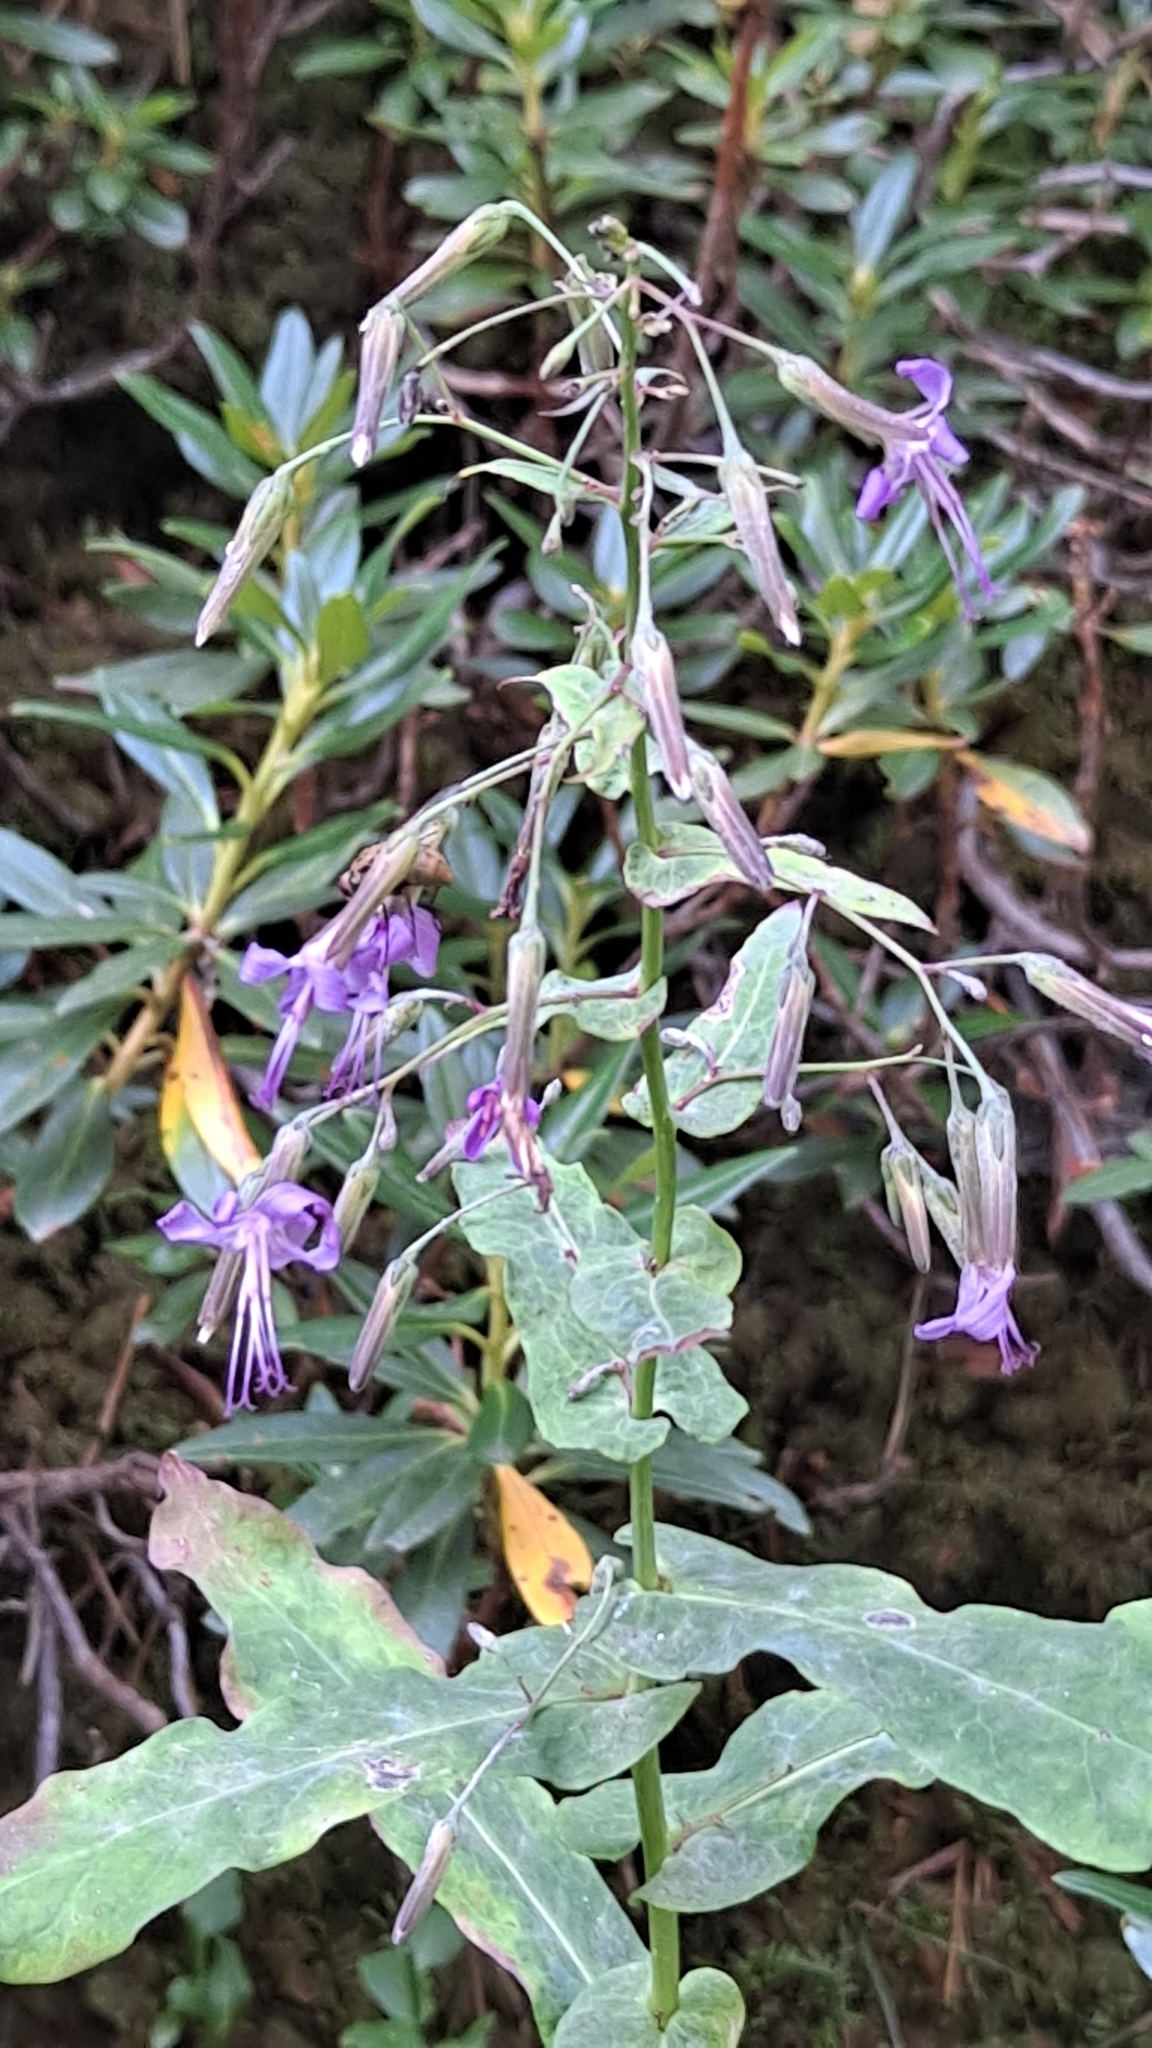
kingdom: Plantae
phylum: Tracheophyta
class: Magnoliopsida
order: Asterales
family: Asteraceae
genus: Prenanthes
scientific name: Prenanthes purpurea
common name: Purple lettuce
